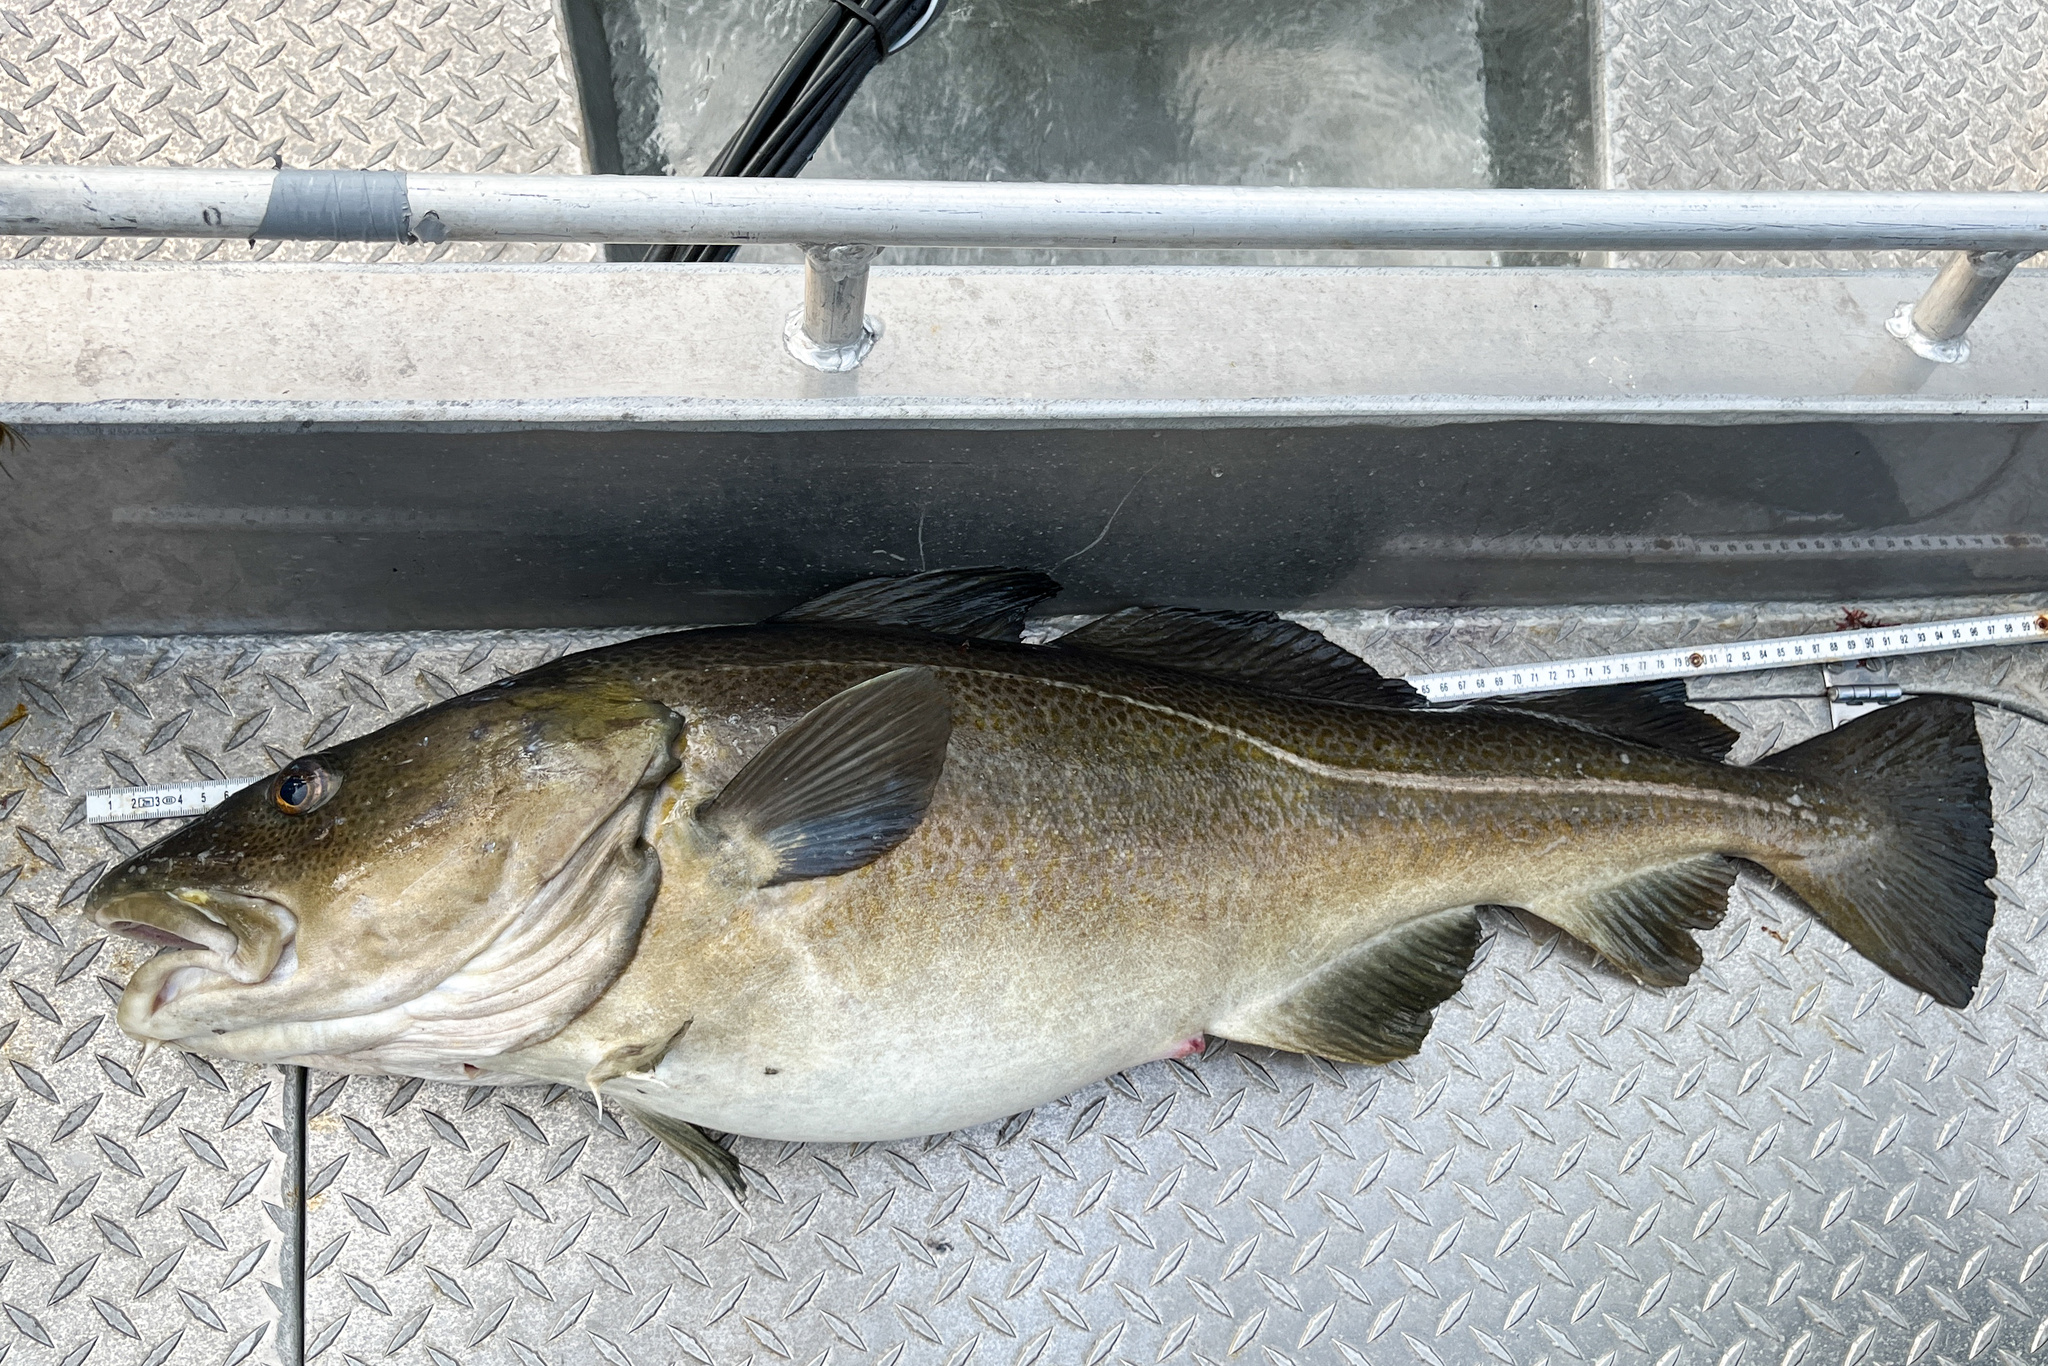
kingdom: Animalia
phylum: Chordata
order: Gadiformes
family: Gadidae
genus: Gadus
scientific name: Gadus morhua
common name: Atlantic cod
